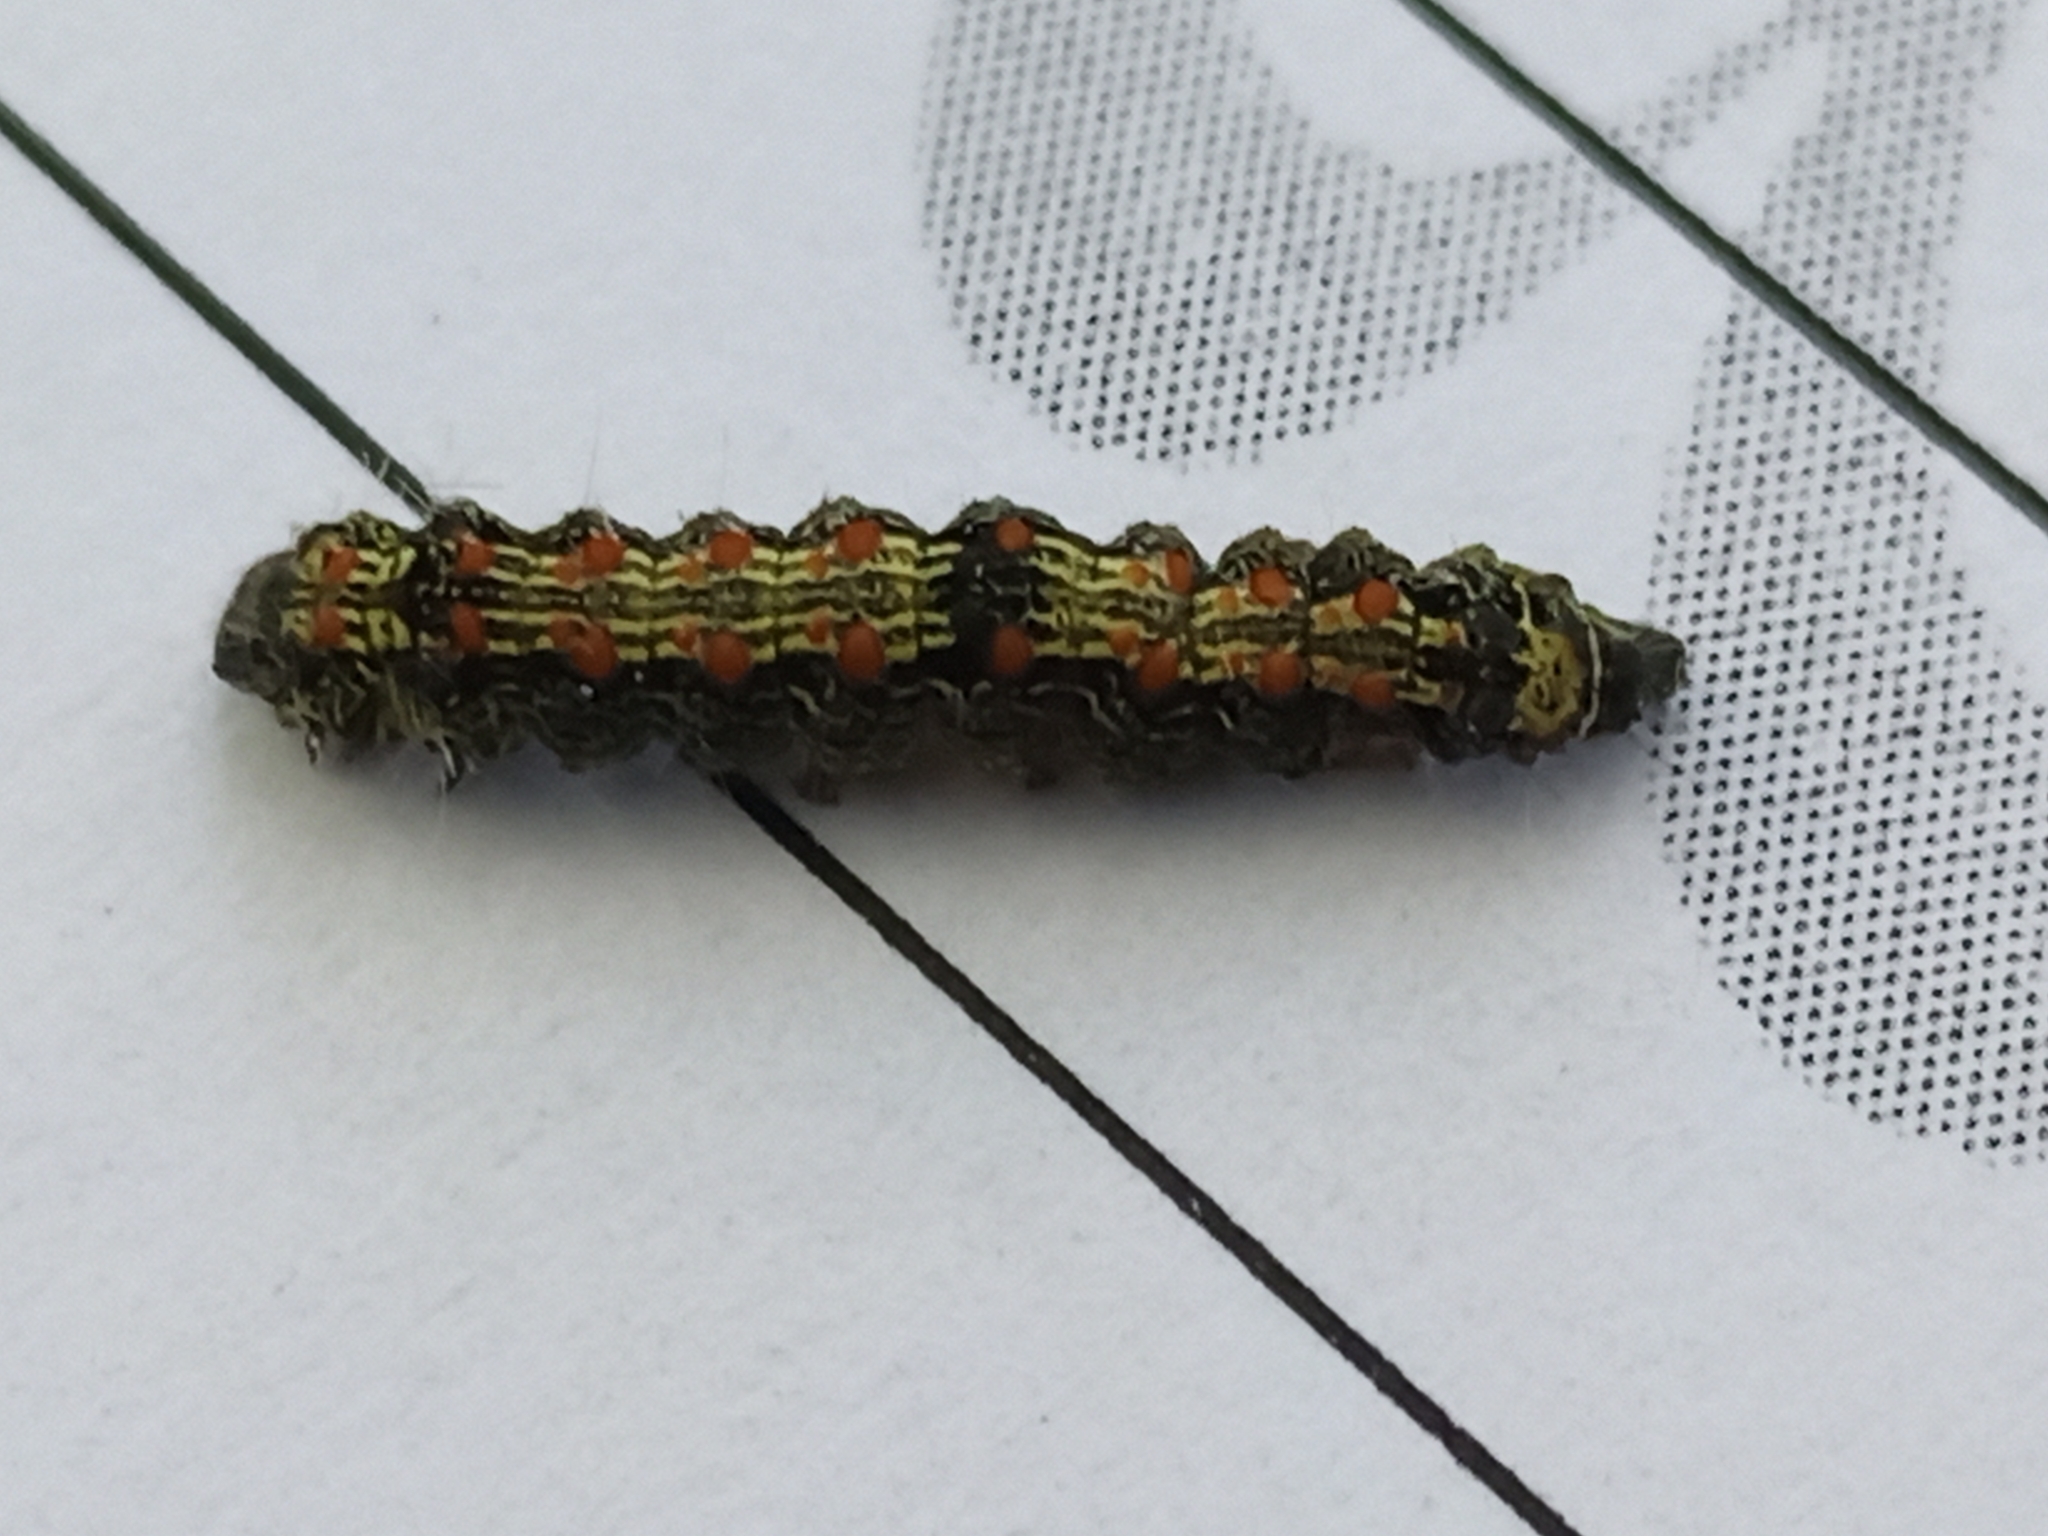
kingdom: Animalia
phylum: Arthropoda
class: Insecta
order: Lepidoptera
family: Erebidae
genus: Lithosia
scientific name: Lithosia quadra
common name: Four-spotted footman
